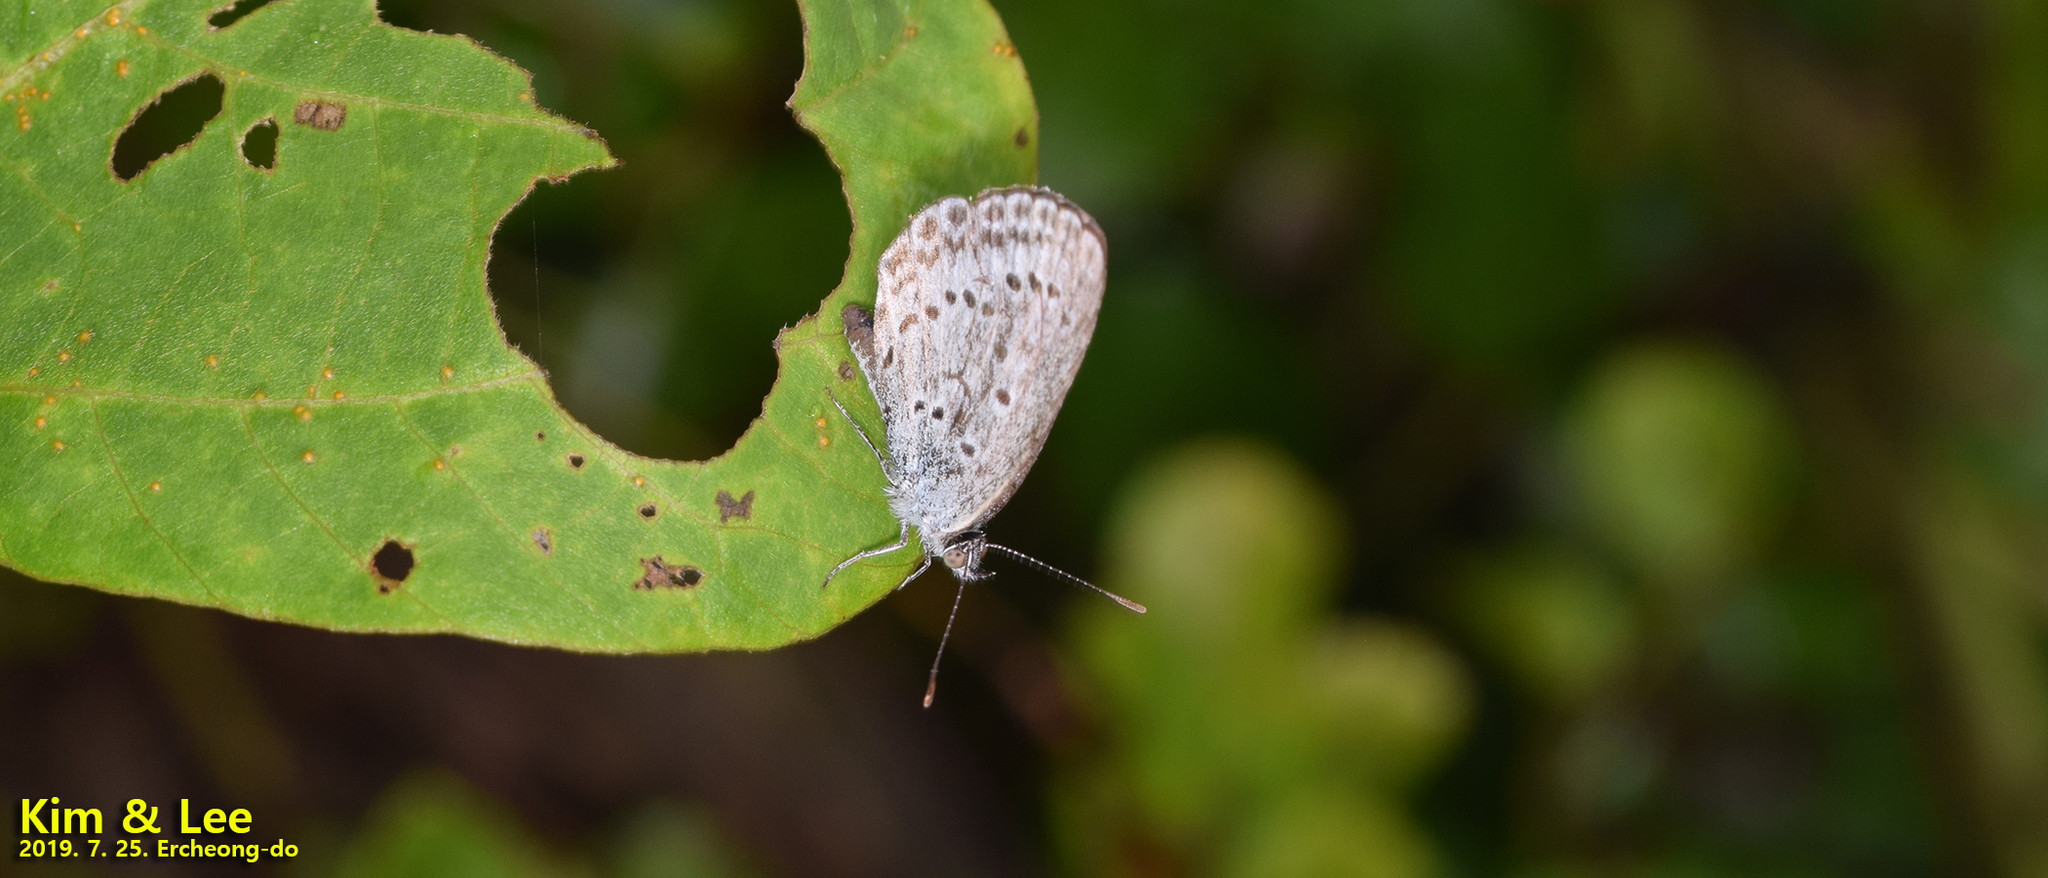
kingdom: Animalia
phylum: Arthropoda
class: Insecta
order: Lepidoptera
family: Lycaenidae
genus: Pseudozizeeria
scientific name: Pseudozizeeria maha
